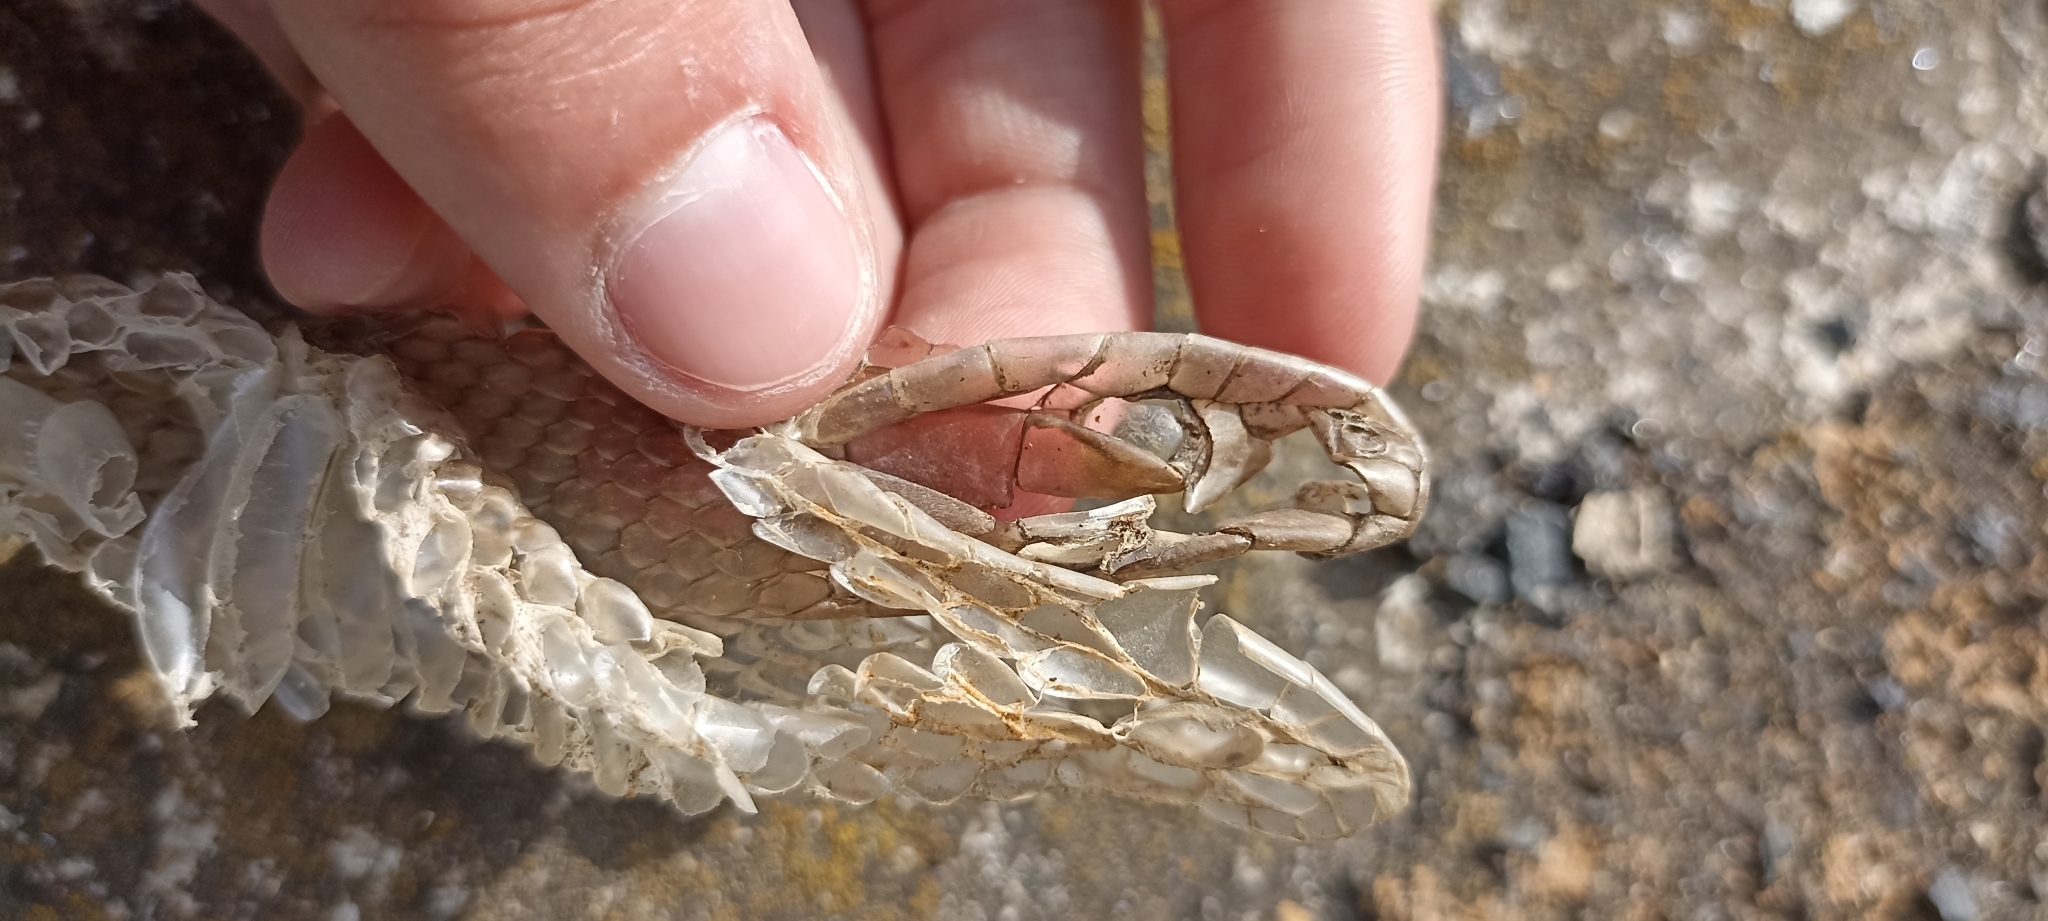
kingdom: Animalia
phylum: Chordata
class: Squamata
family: Psammophiidae
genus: Malpolon
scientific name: Malpolon monspessulanus
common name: Montpellier snake
